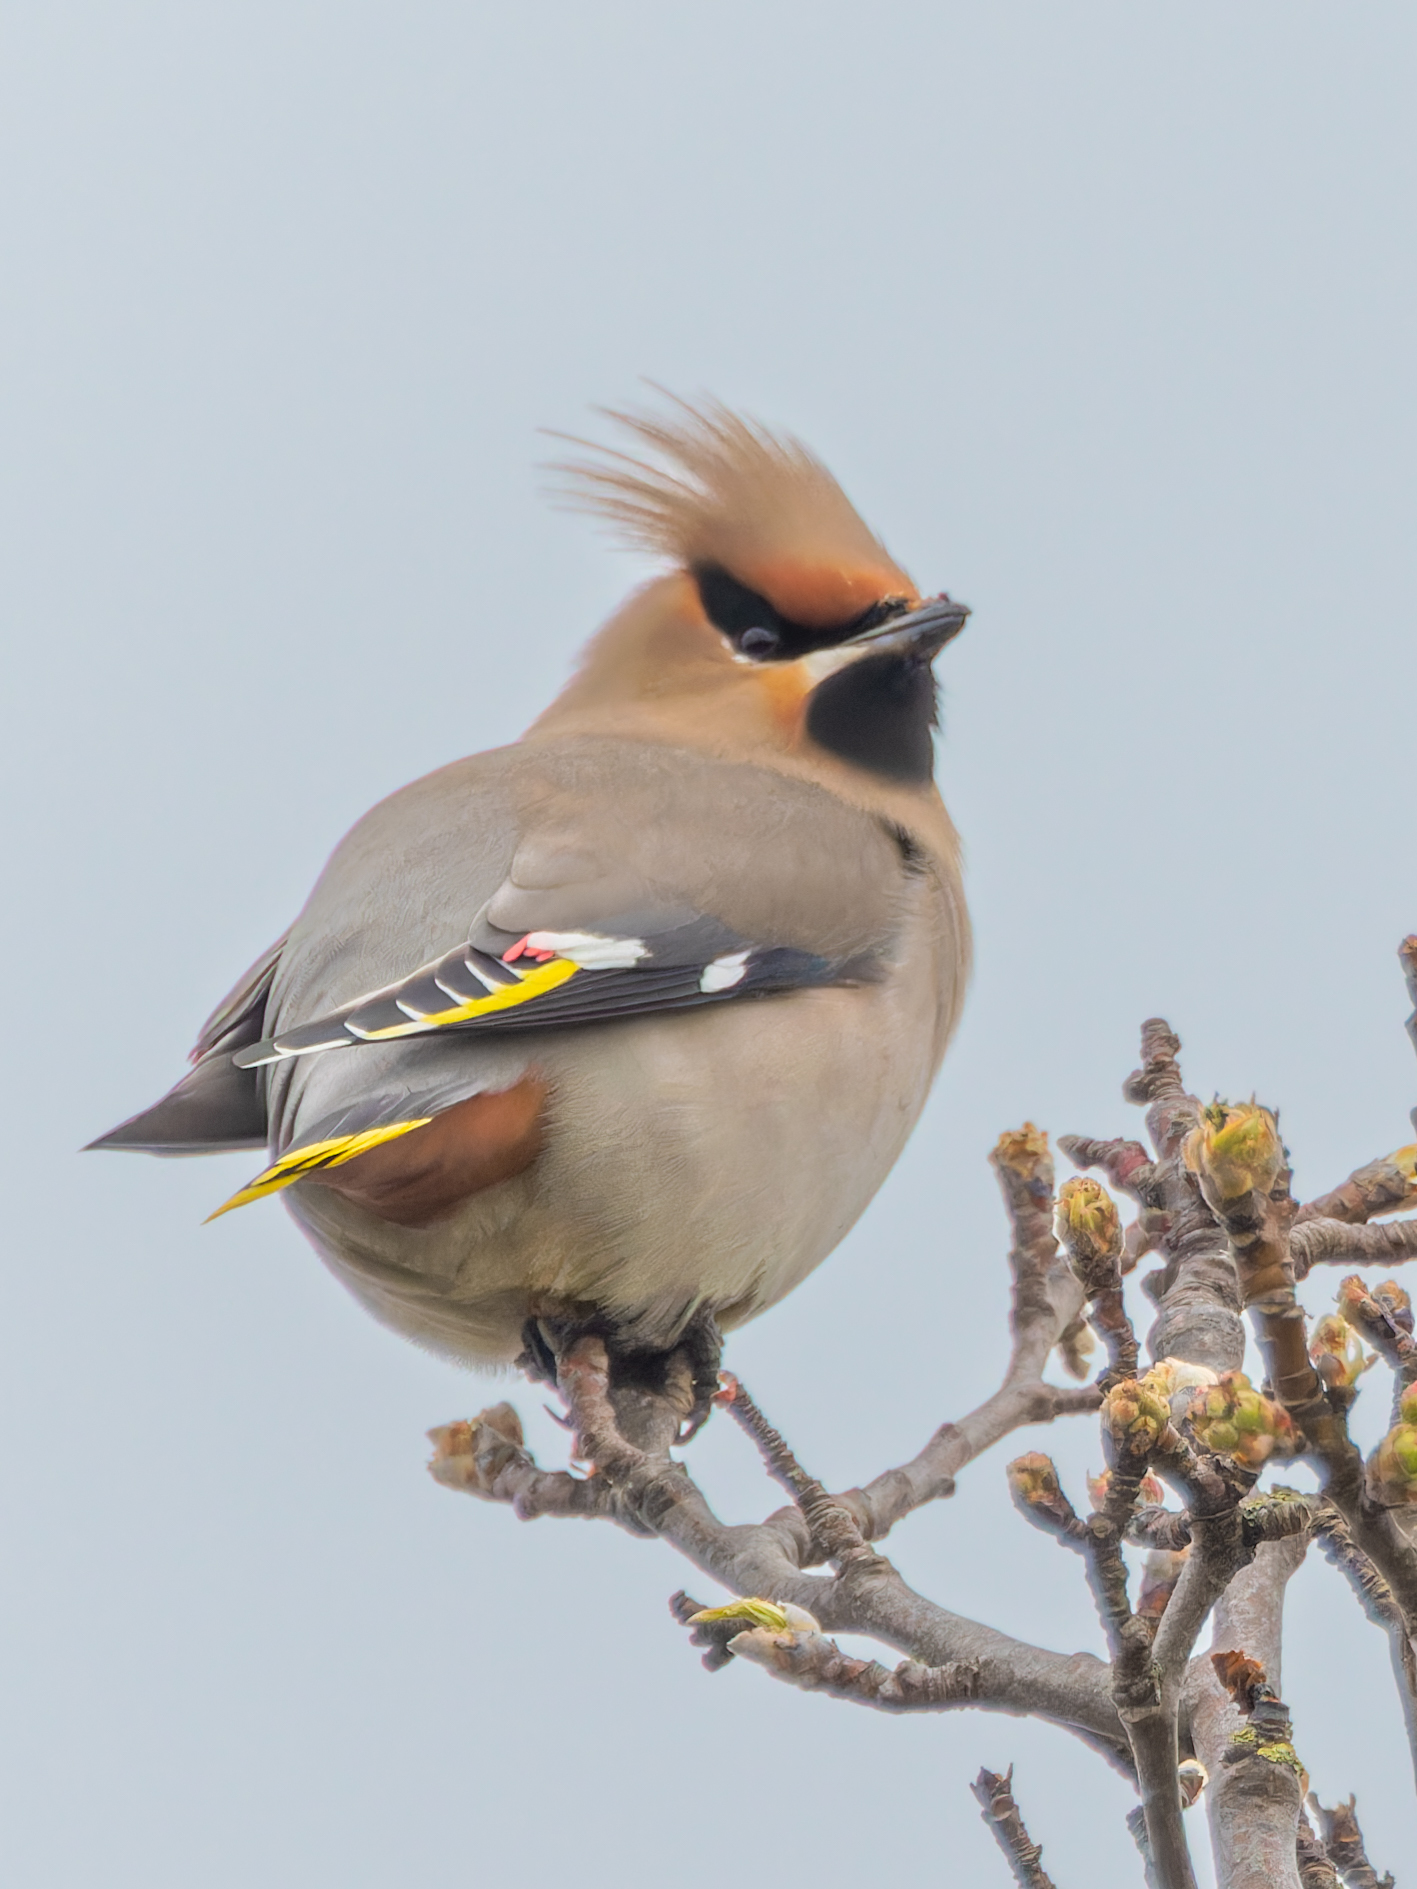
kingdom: Animalia
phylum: Chordata
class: Aves
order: Passeriformes
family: Bombycillidae
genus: Bombycilla
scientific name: Bombycilla garrulus
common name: Bohemian waxwing
